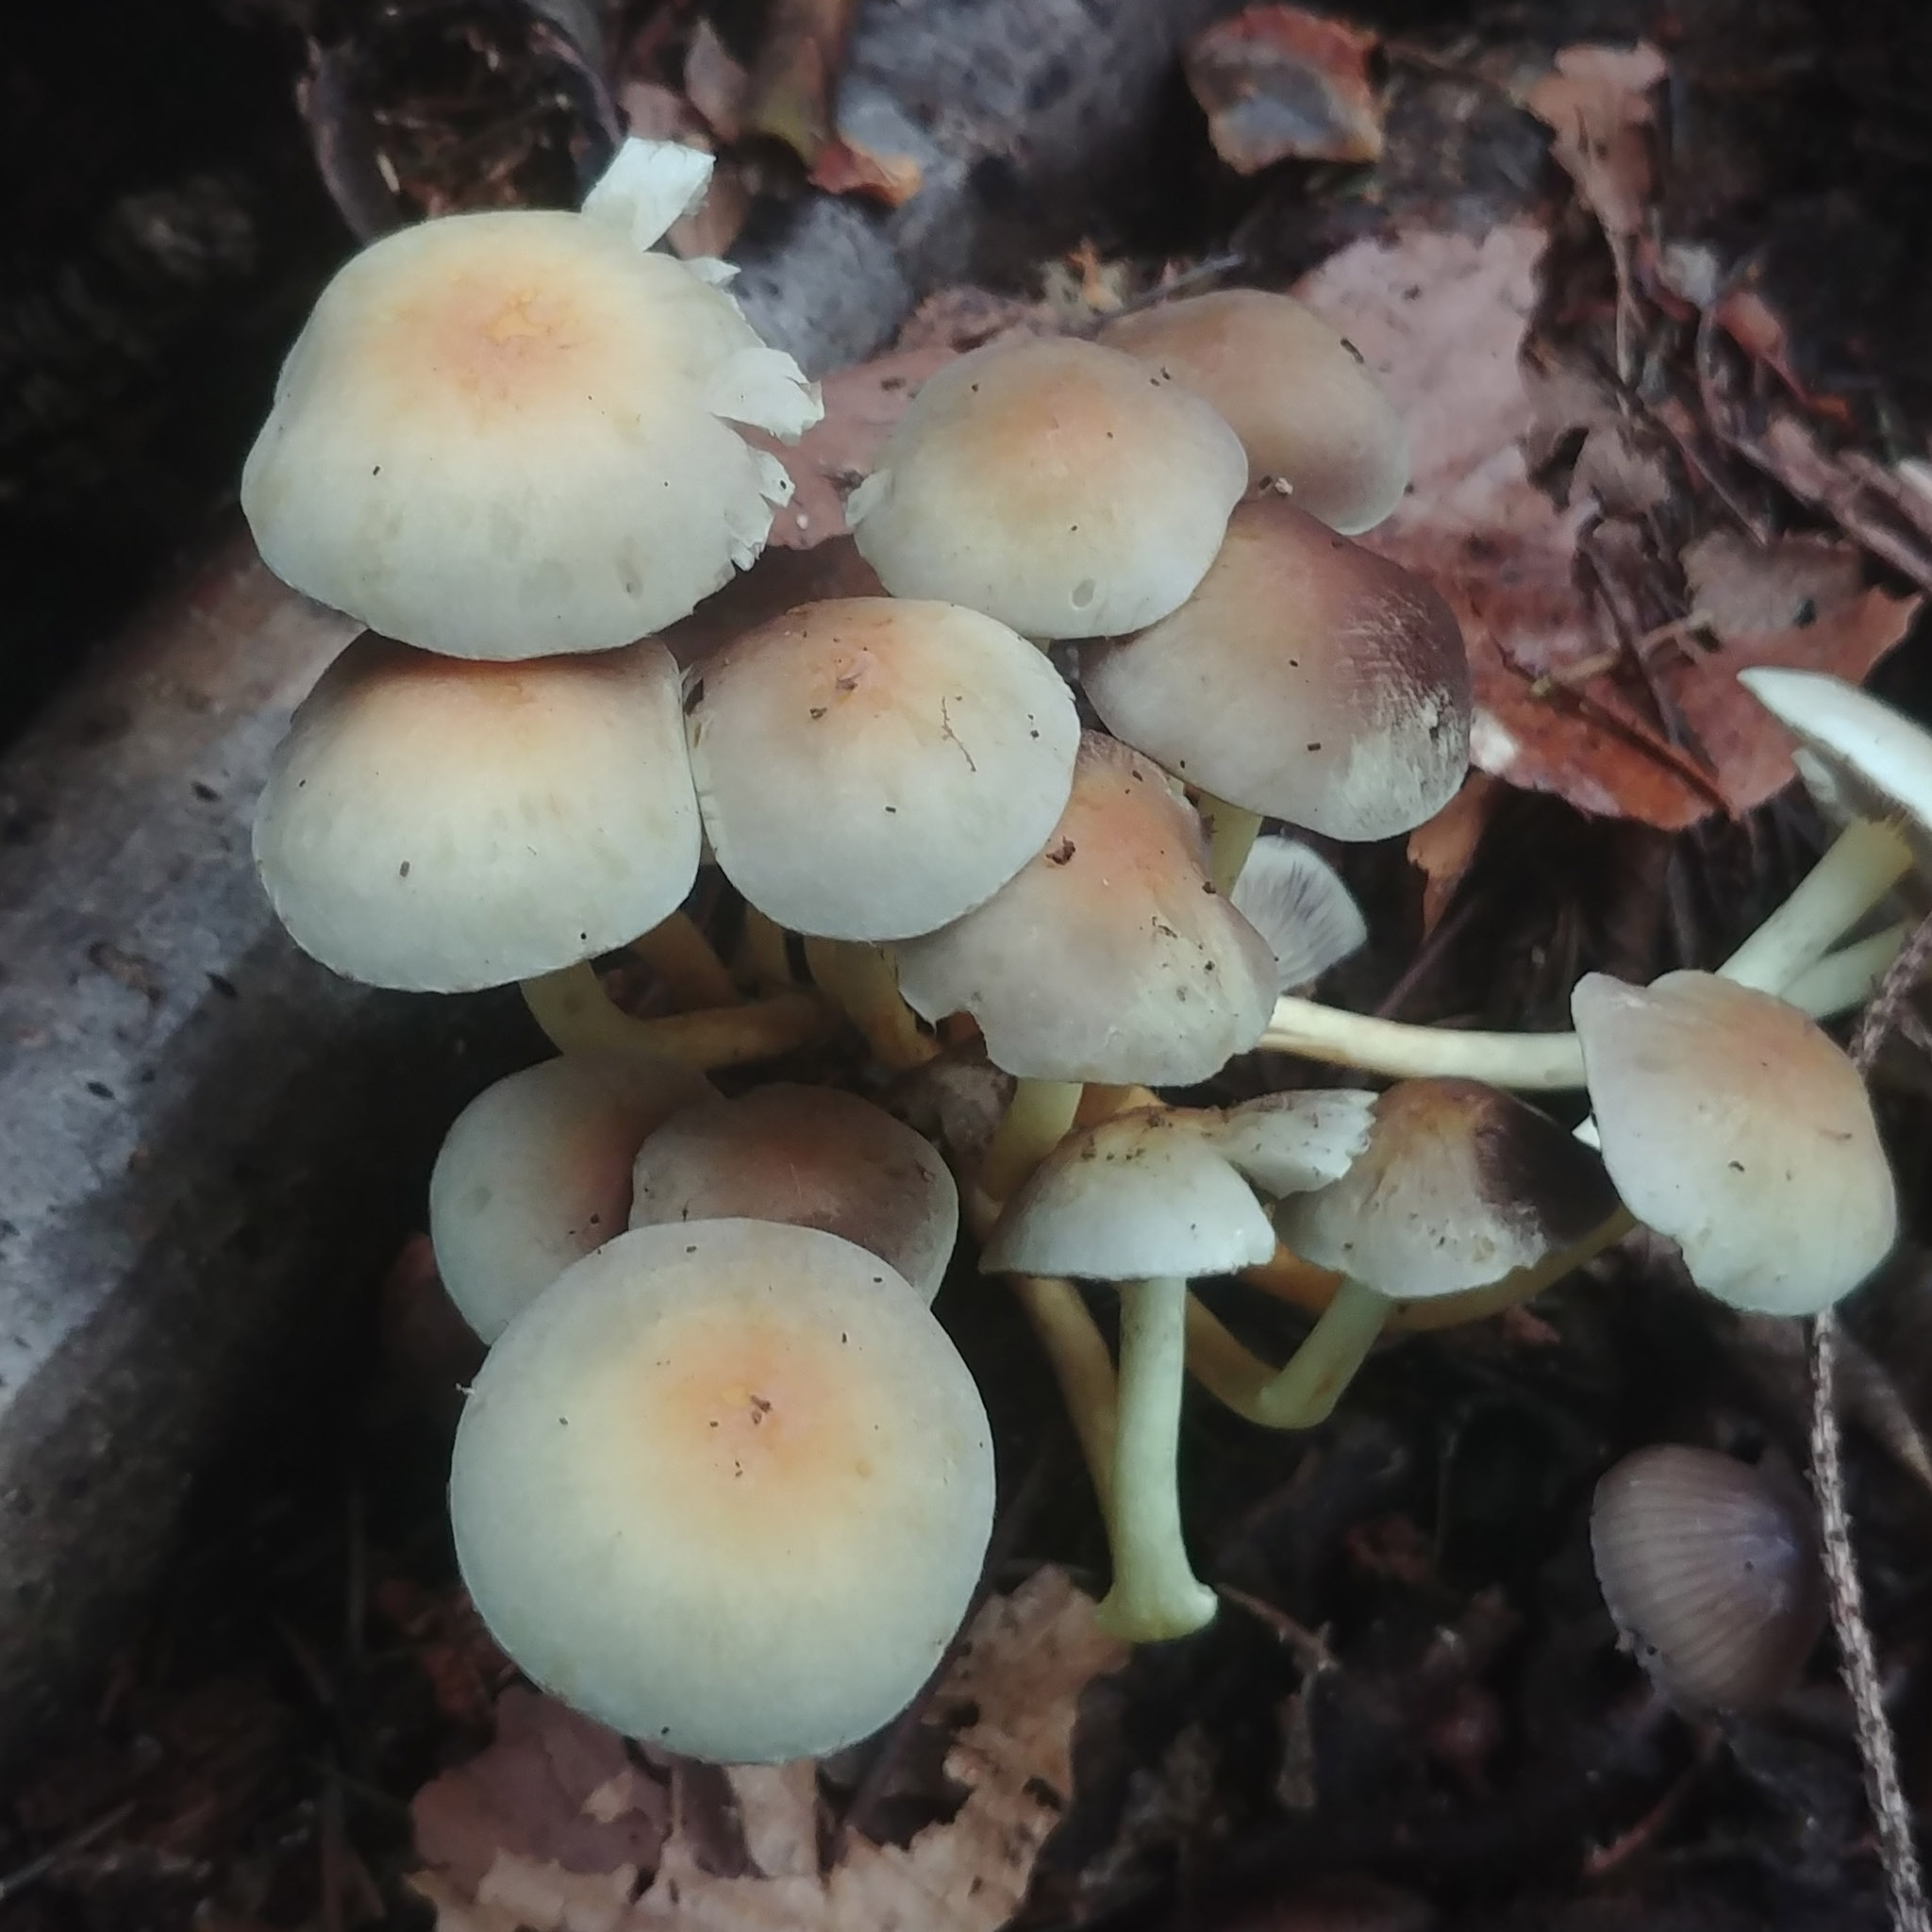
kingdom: Fungi
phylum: Basidiomycota
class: Agaricomycetes
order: Agaricales
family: Strophariaceae
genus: Hypholoma
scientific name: Hypholoma fasciculare
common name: Sulphur tuft
